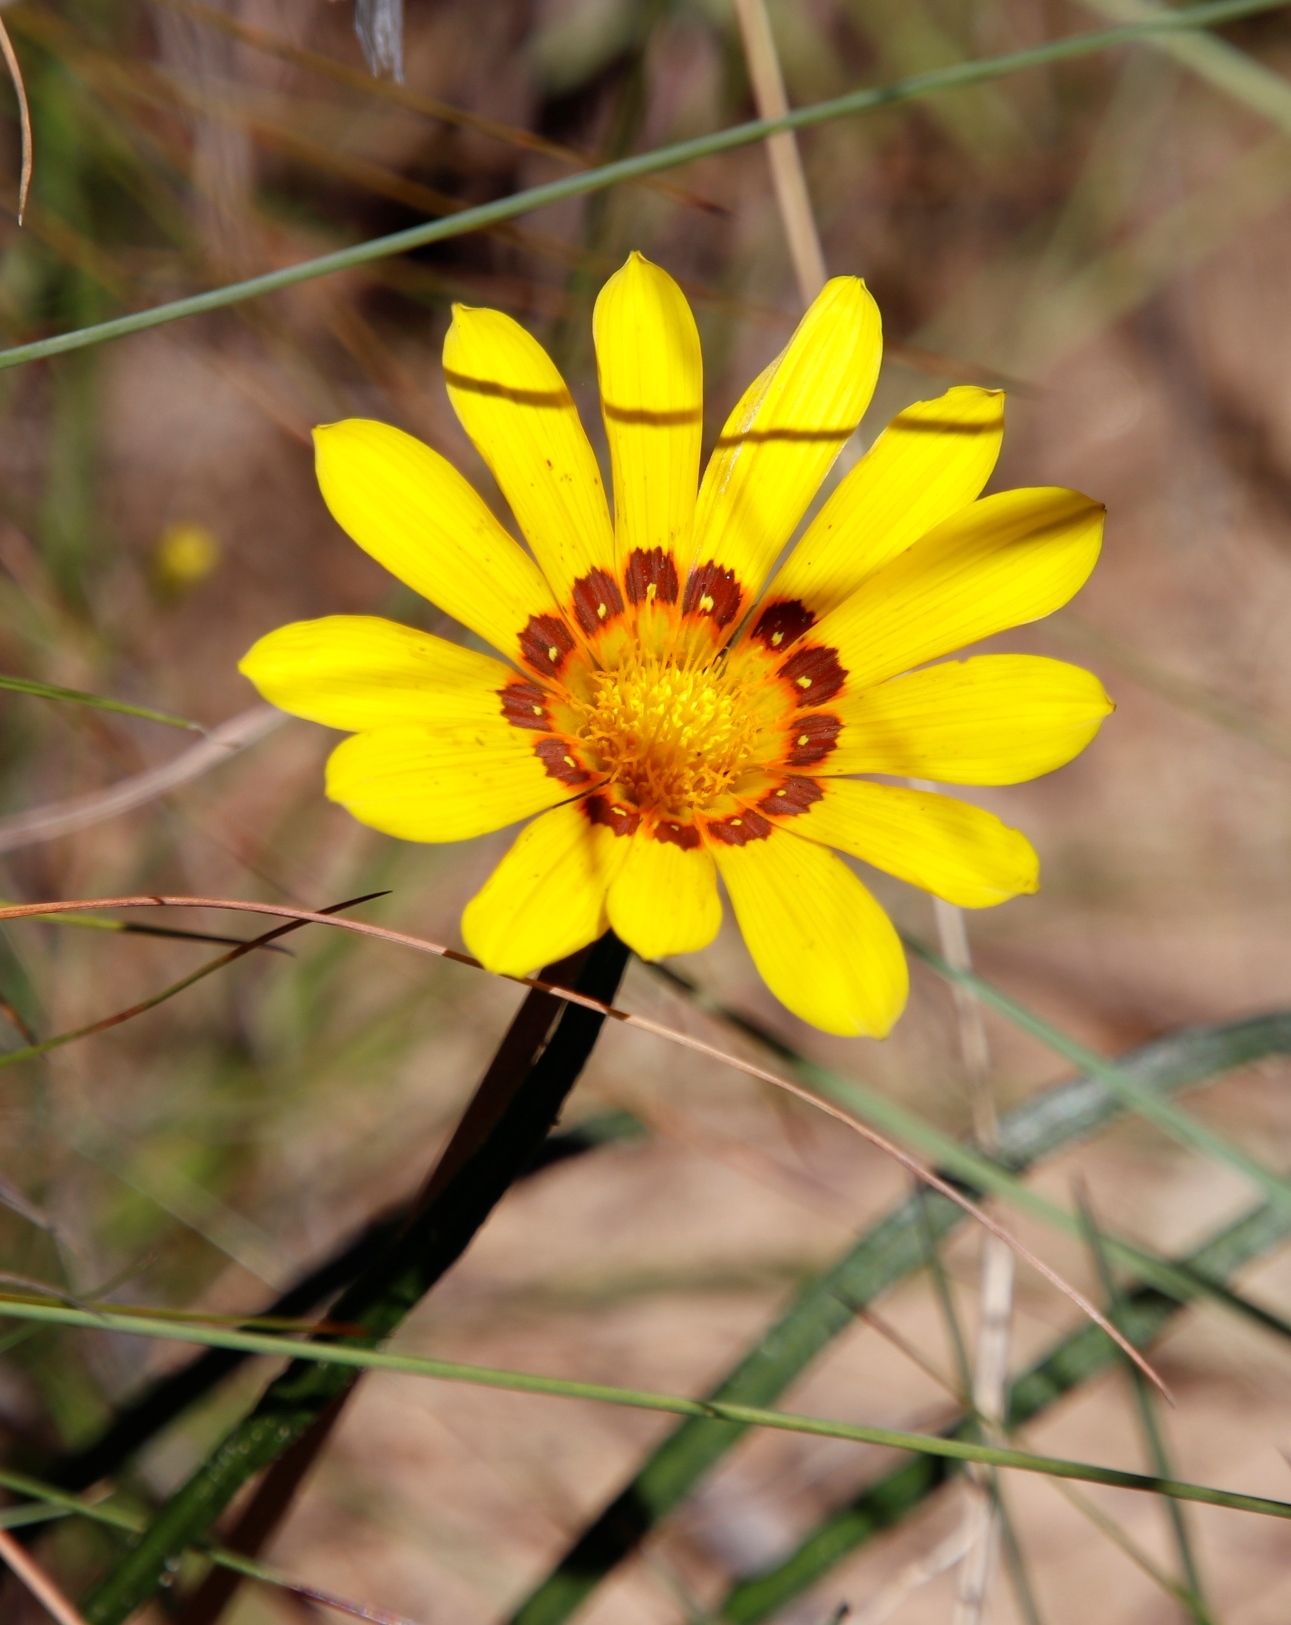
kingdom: Plantae
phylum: Tracheophyta
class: Magnoliopsida
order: Asterales
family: Asteraceae
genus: Gazania
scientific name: Gazania linearis
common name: Treasureflower
